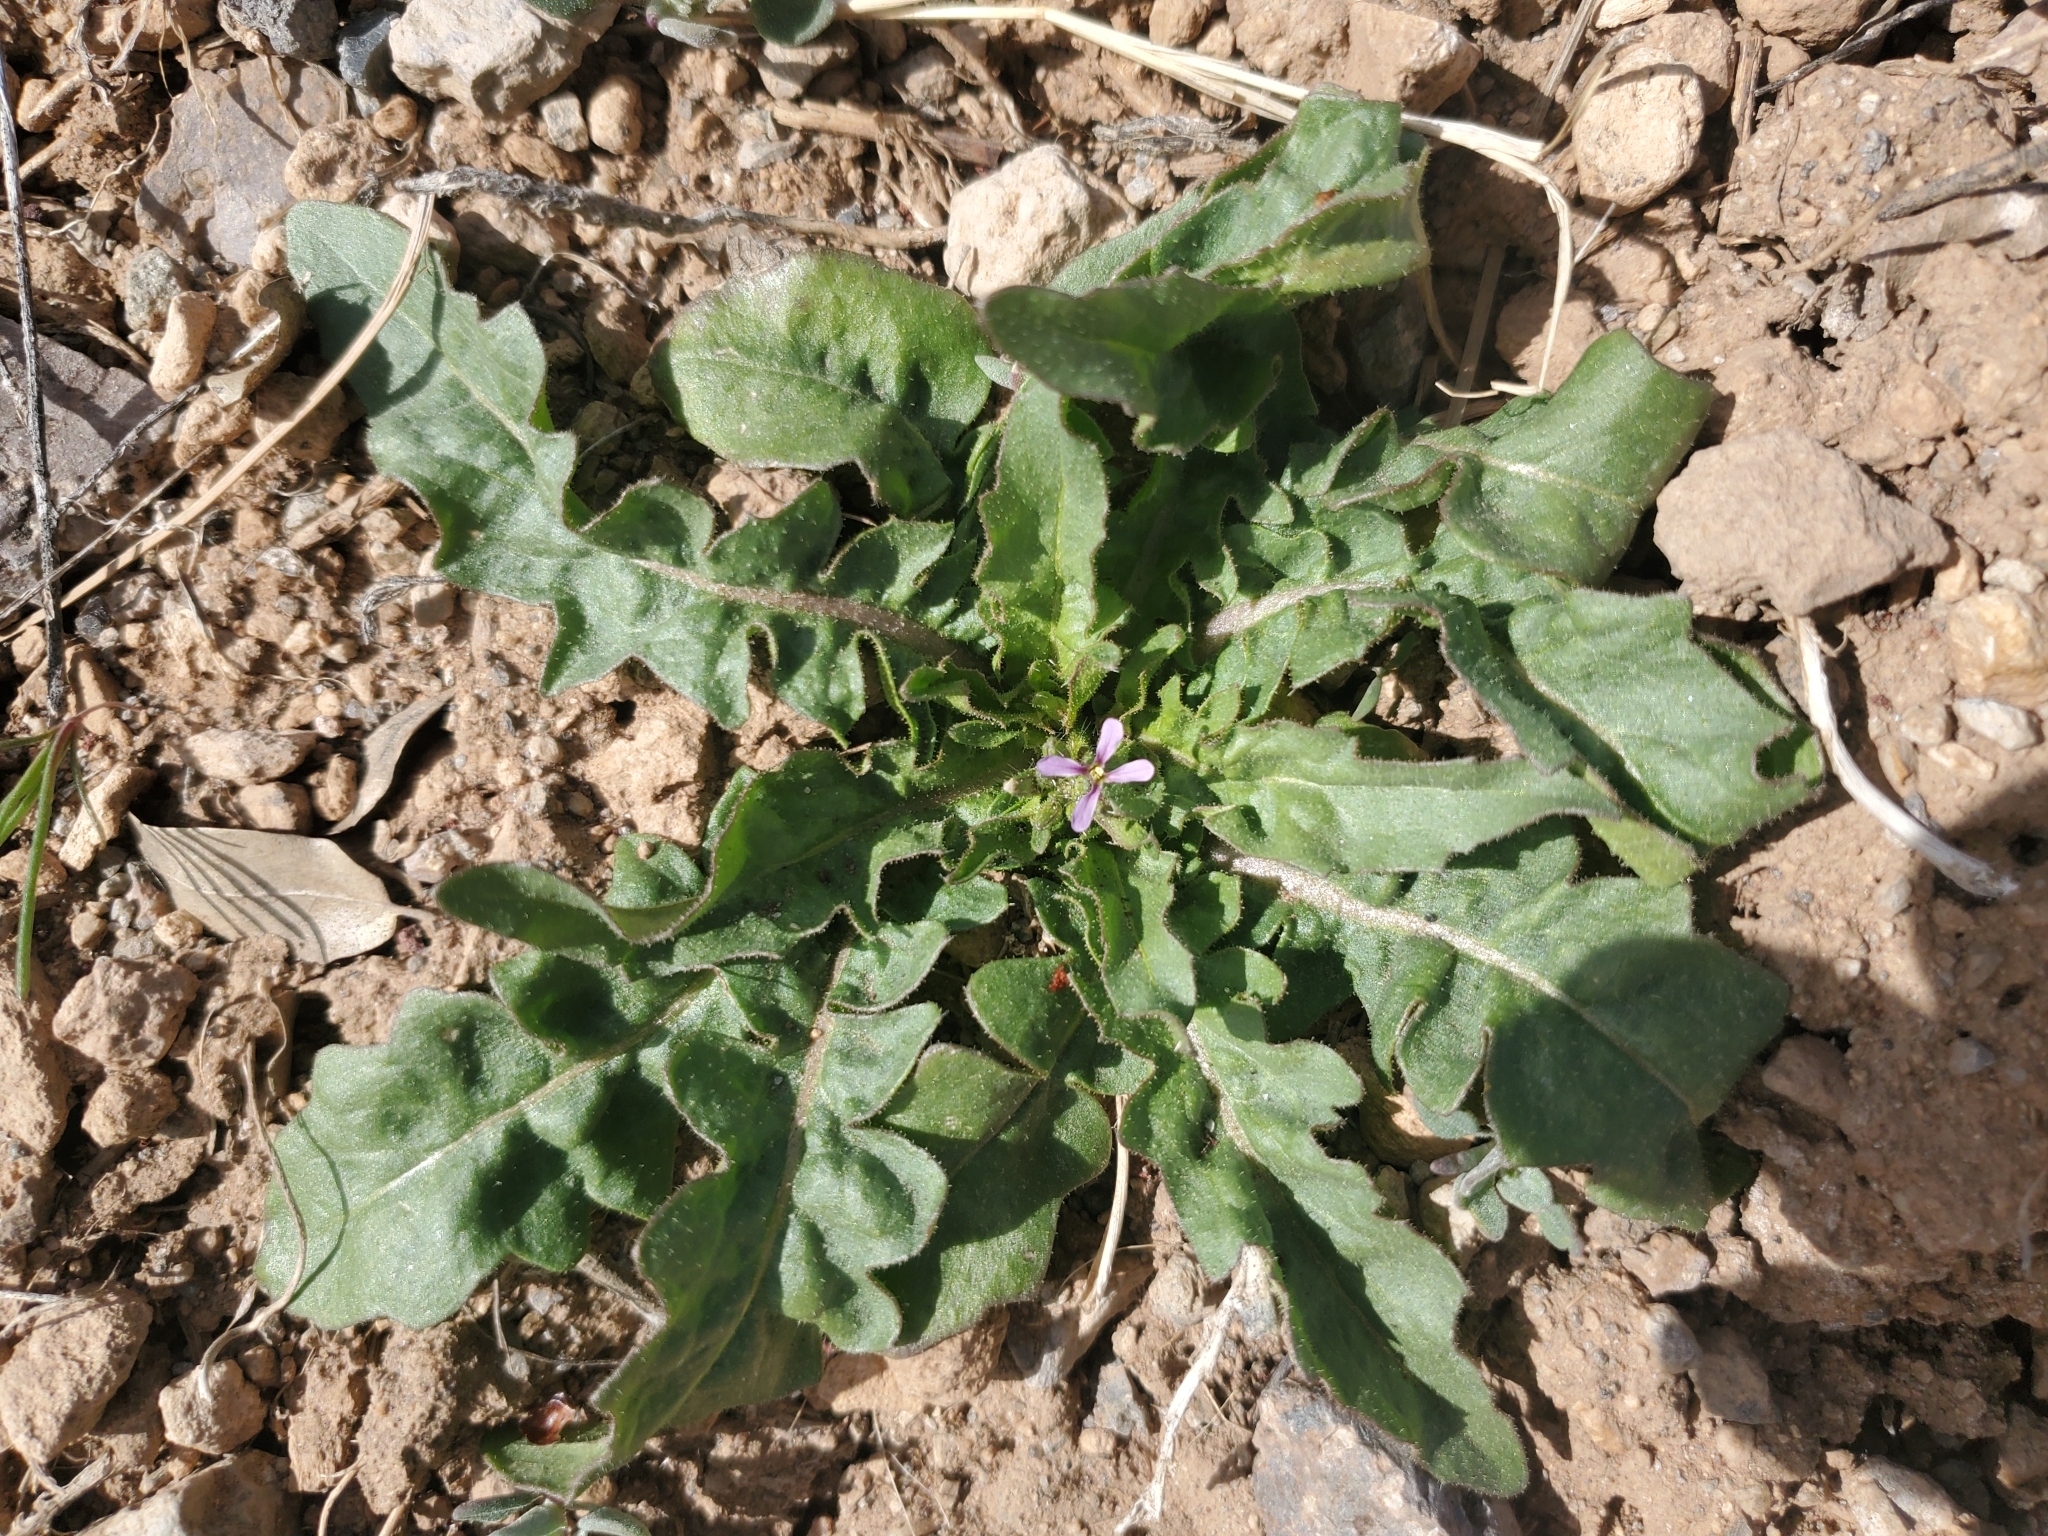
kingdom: Plantae
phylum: Tracheophyta
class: Magnoliopsida
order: Brassicales
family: Brassicaceae
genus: Chorispora
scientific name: Chorispora tenella
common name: Crossflower
